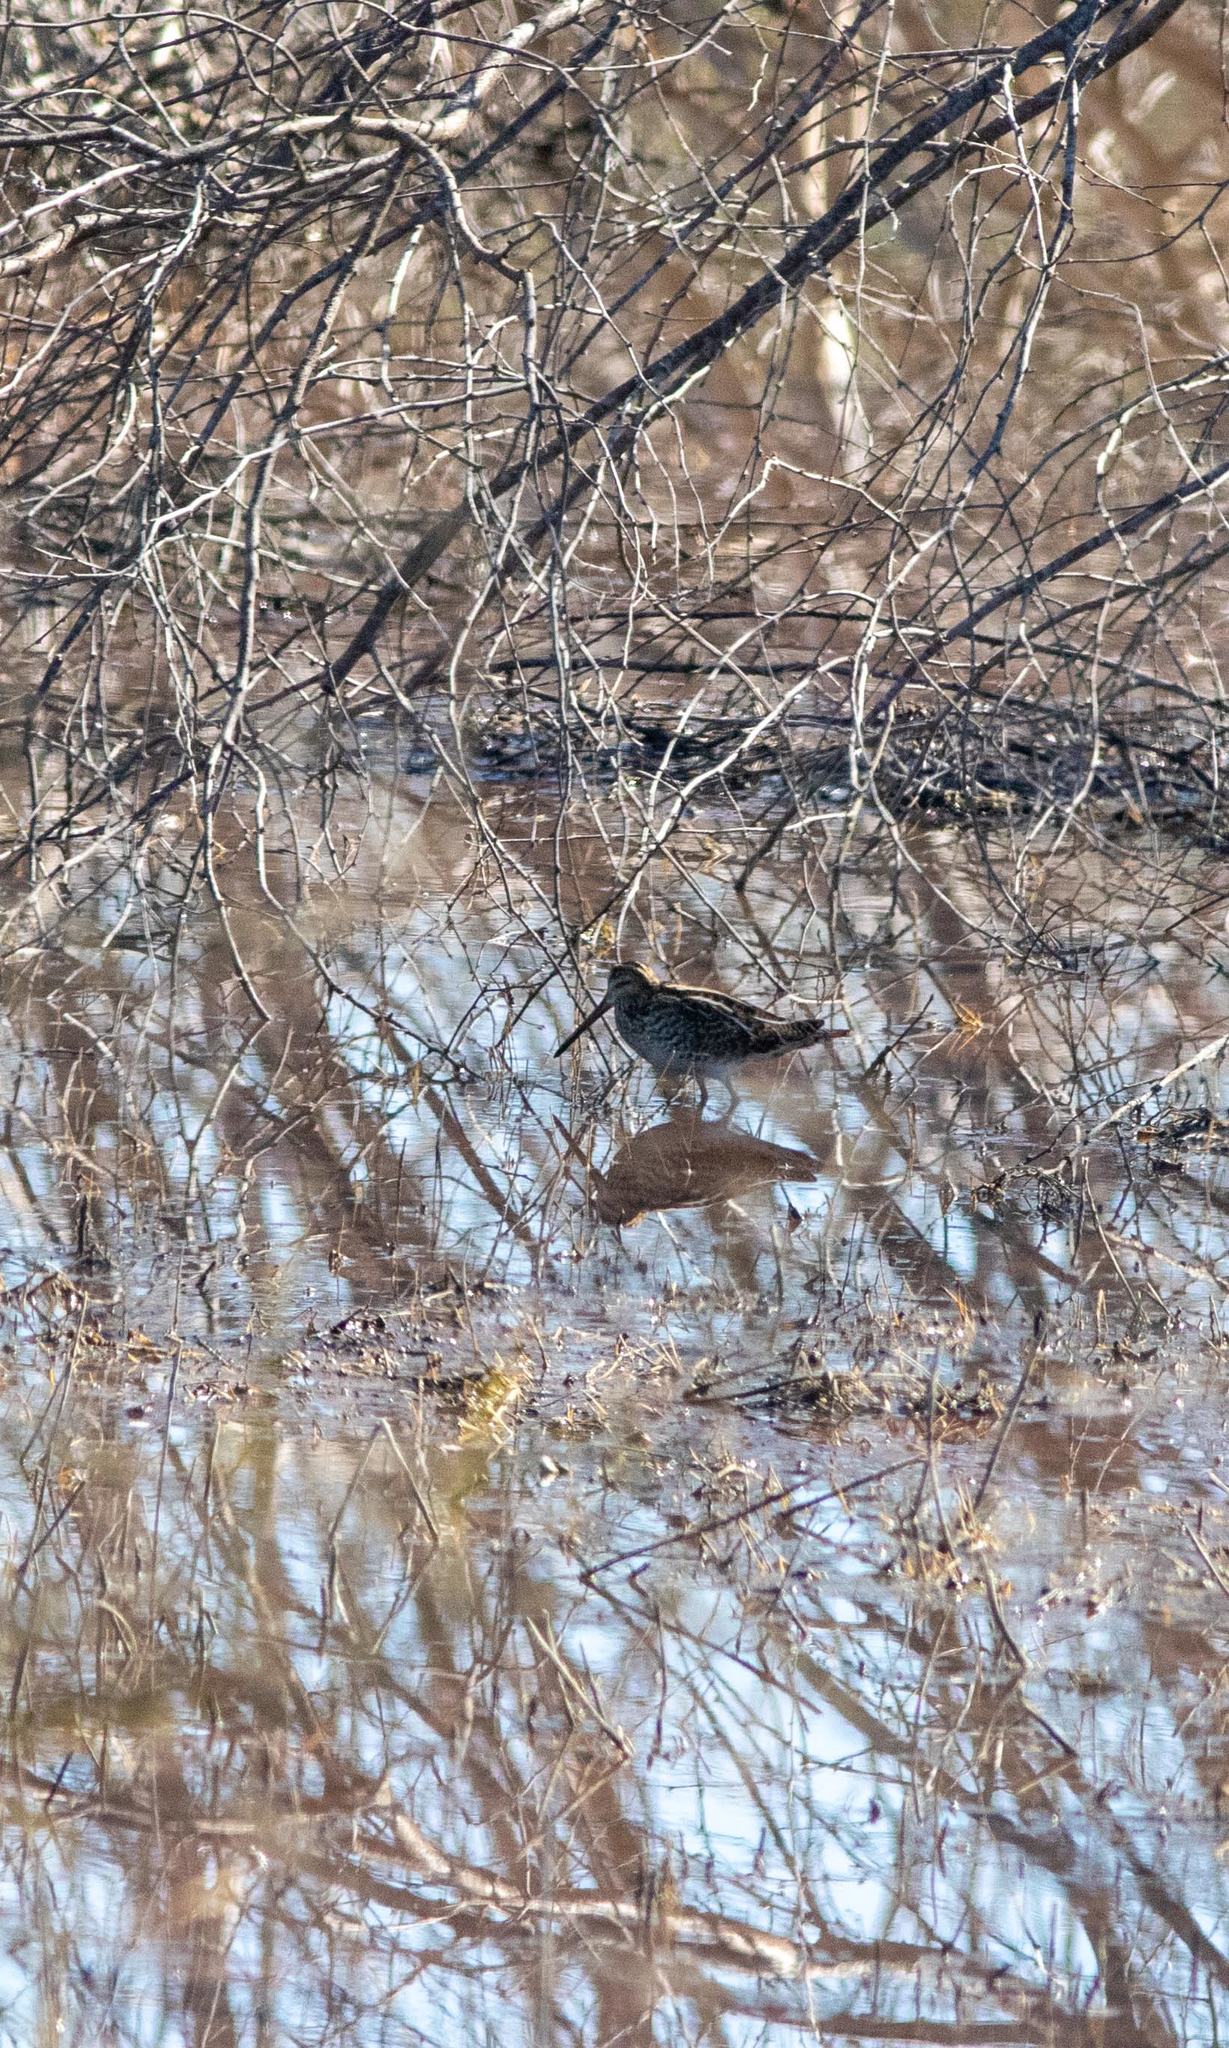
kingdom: Animalia
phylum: Chordata
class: Aves
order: Charadriiformes
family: Scolopacidae
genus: Gallinago
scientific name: Gallinago delicata
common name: Wilson's snipe
